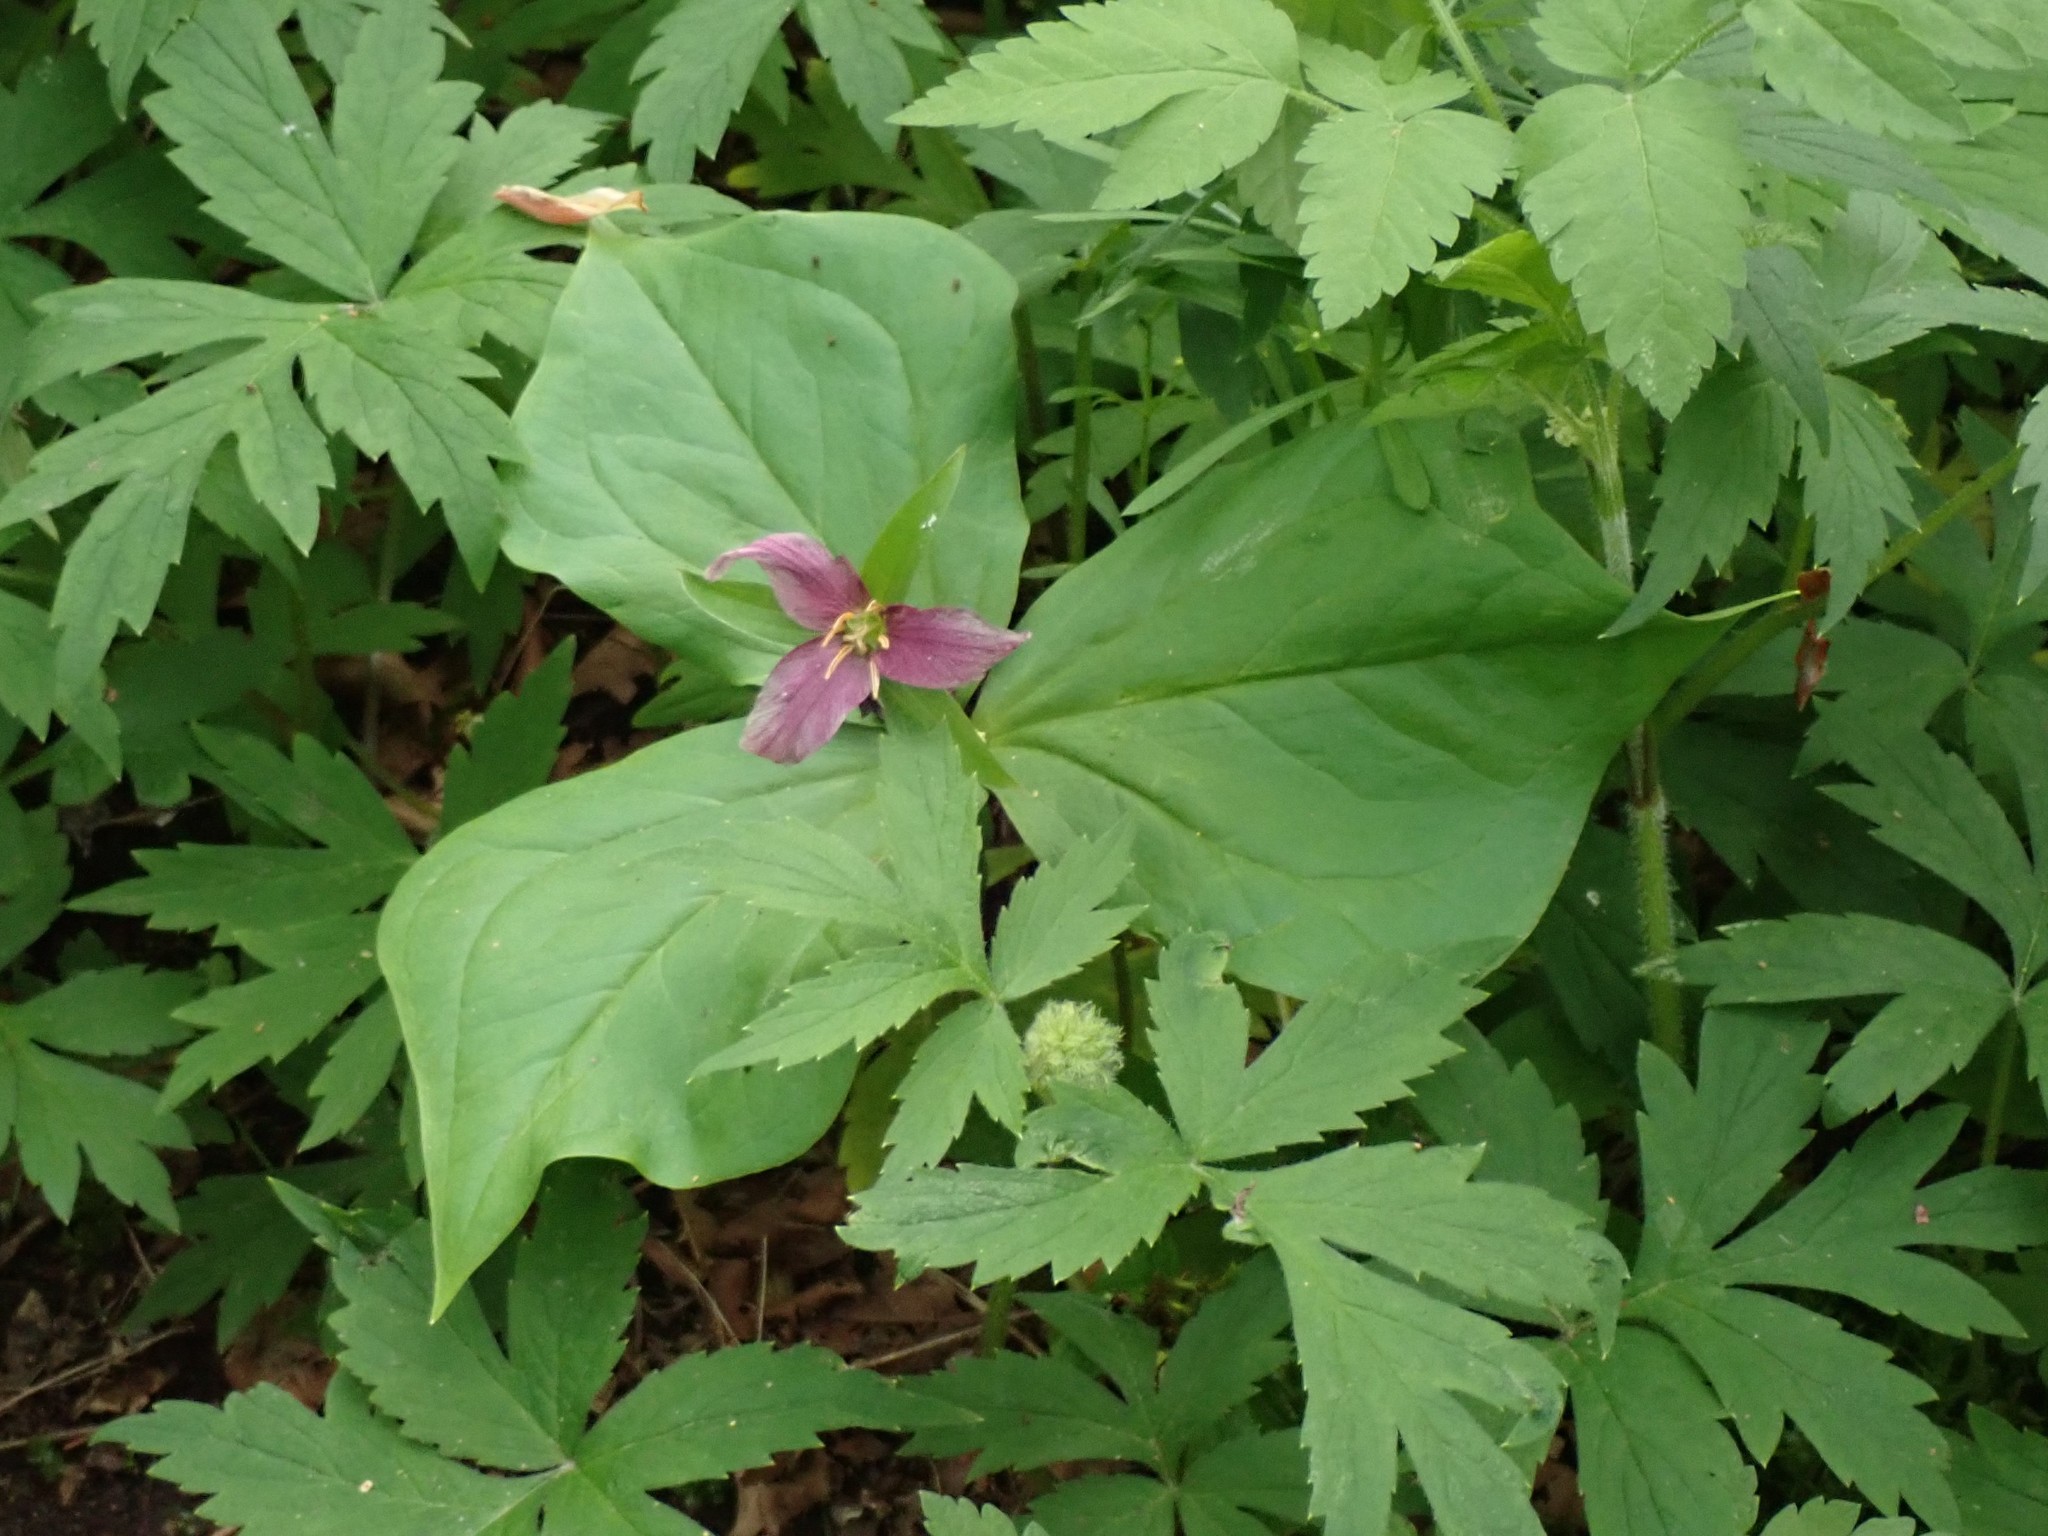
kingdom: Plantae
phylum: Tracheophyta
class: Liliopsida
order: Liliales
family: Melanthiaceae
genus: Trillium
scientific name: Trillium ovatum
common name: Pacific trillium
